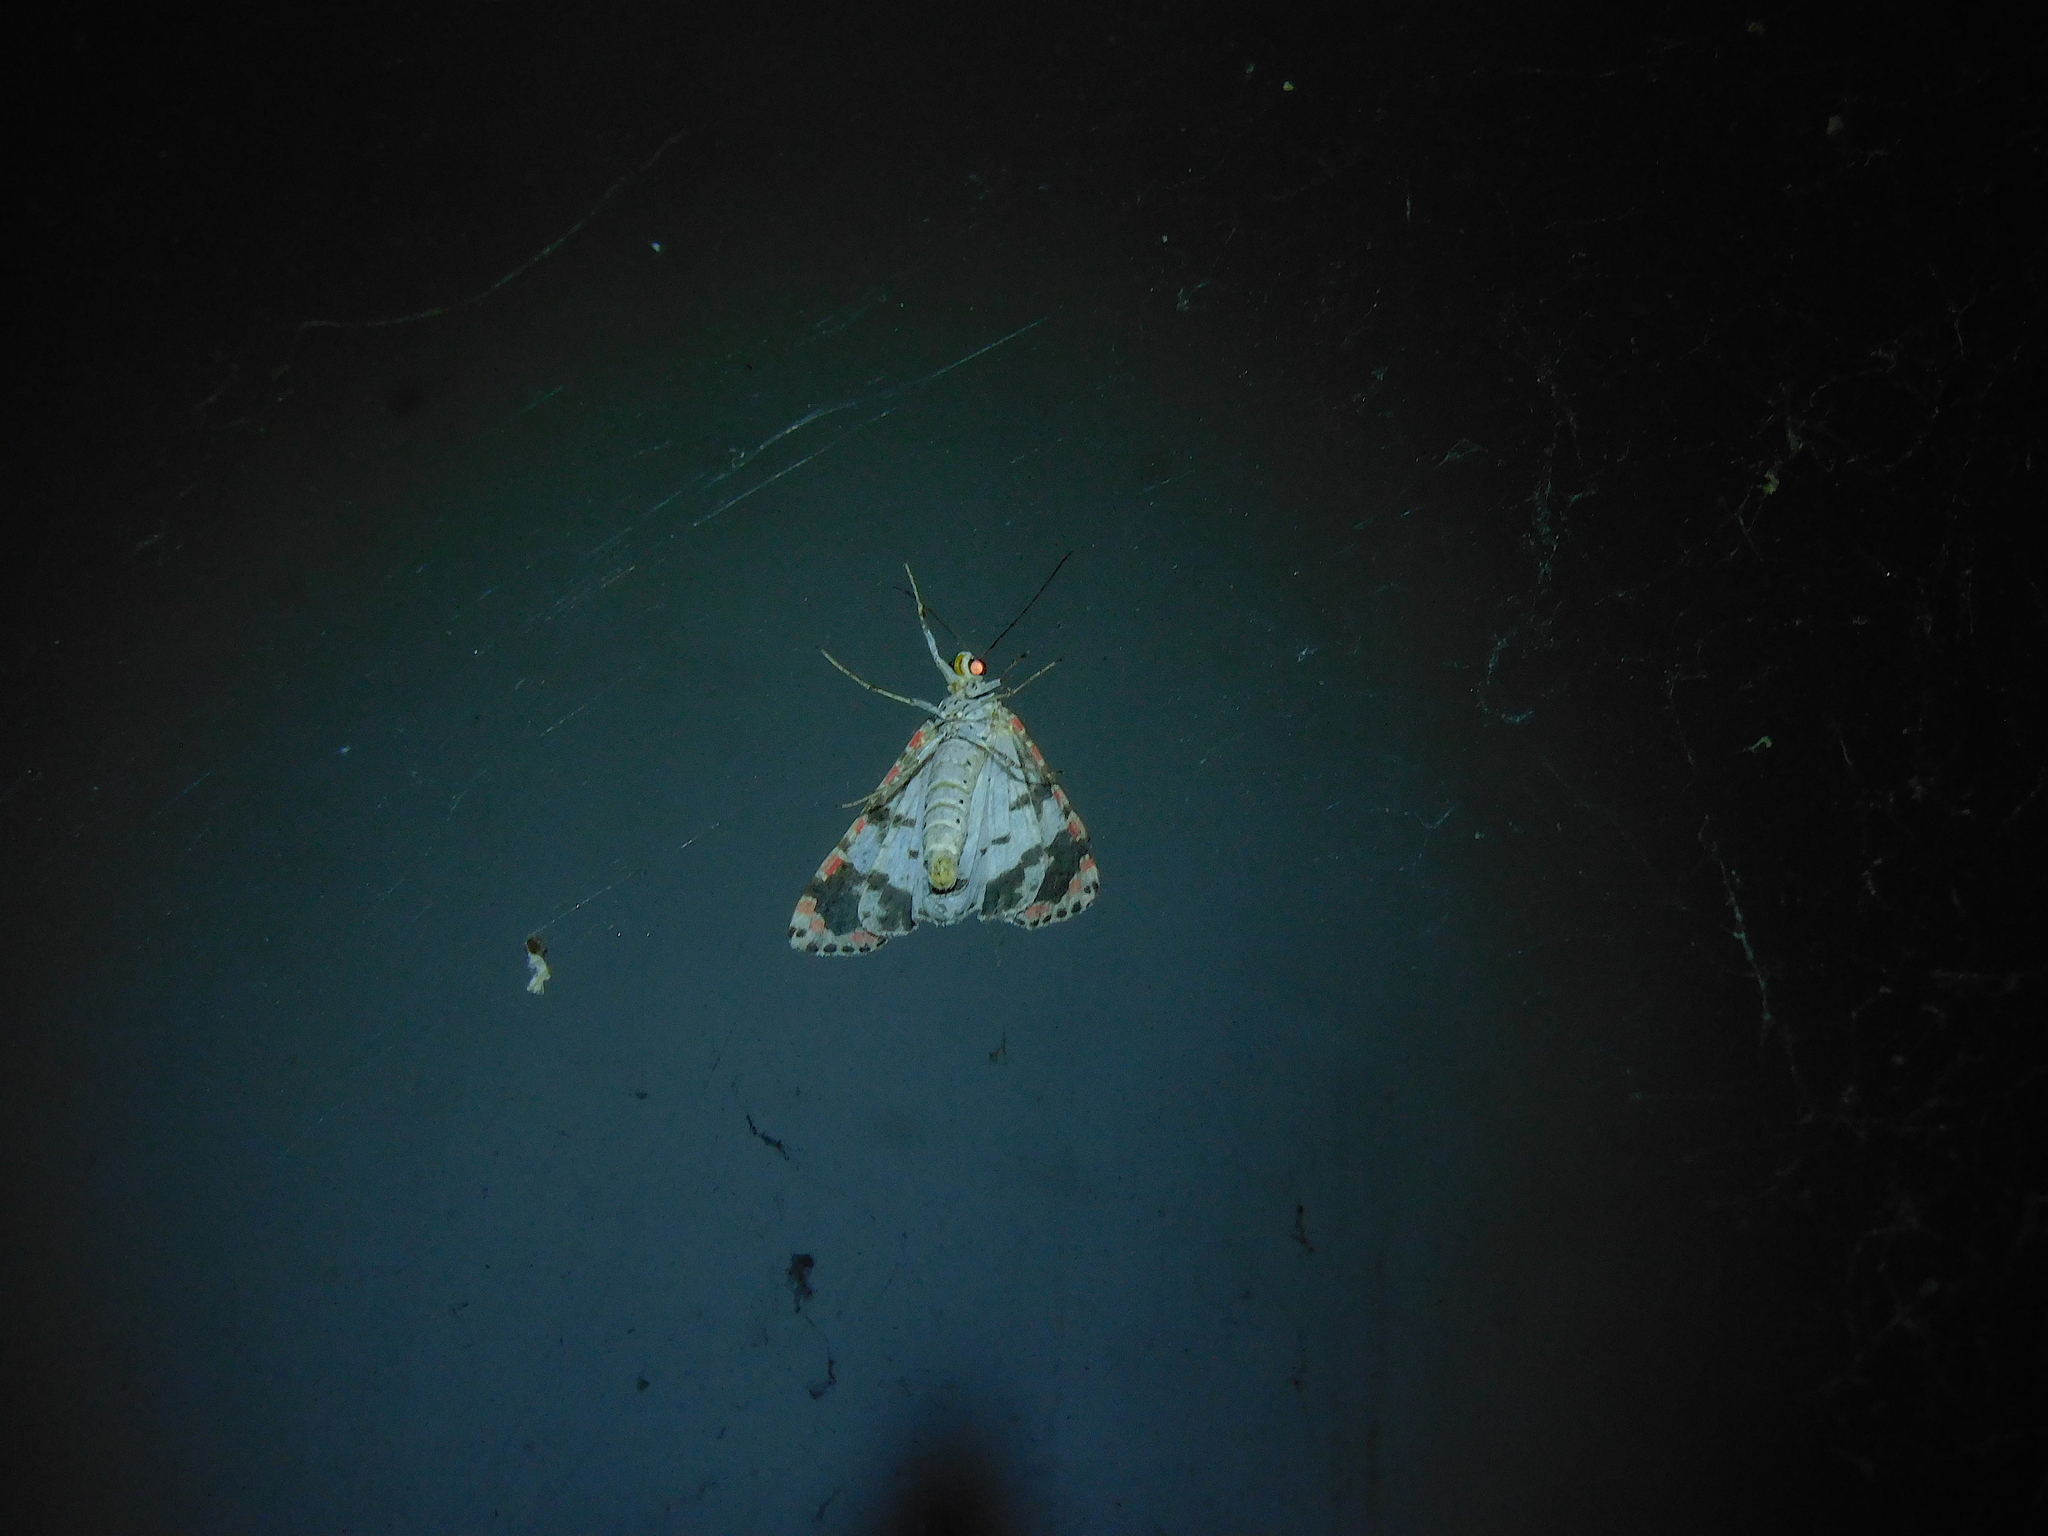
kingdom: Animalia
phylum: Arthropoda
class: Insecta
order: Lepidoptera
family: Erebidae
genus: Utetheisa
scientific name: Utetheisa pulchelloides
